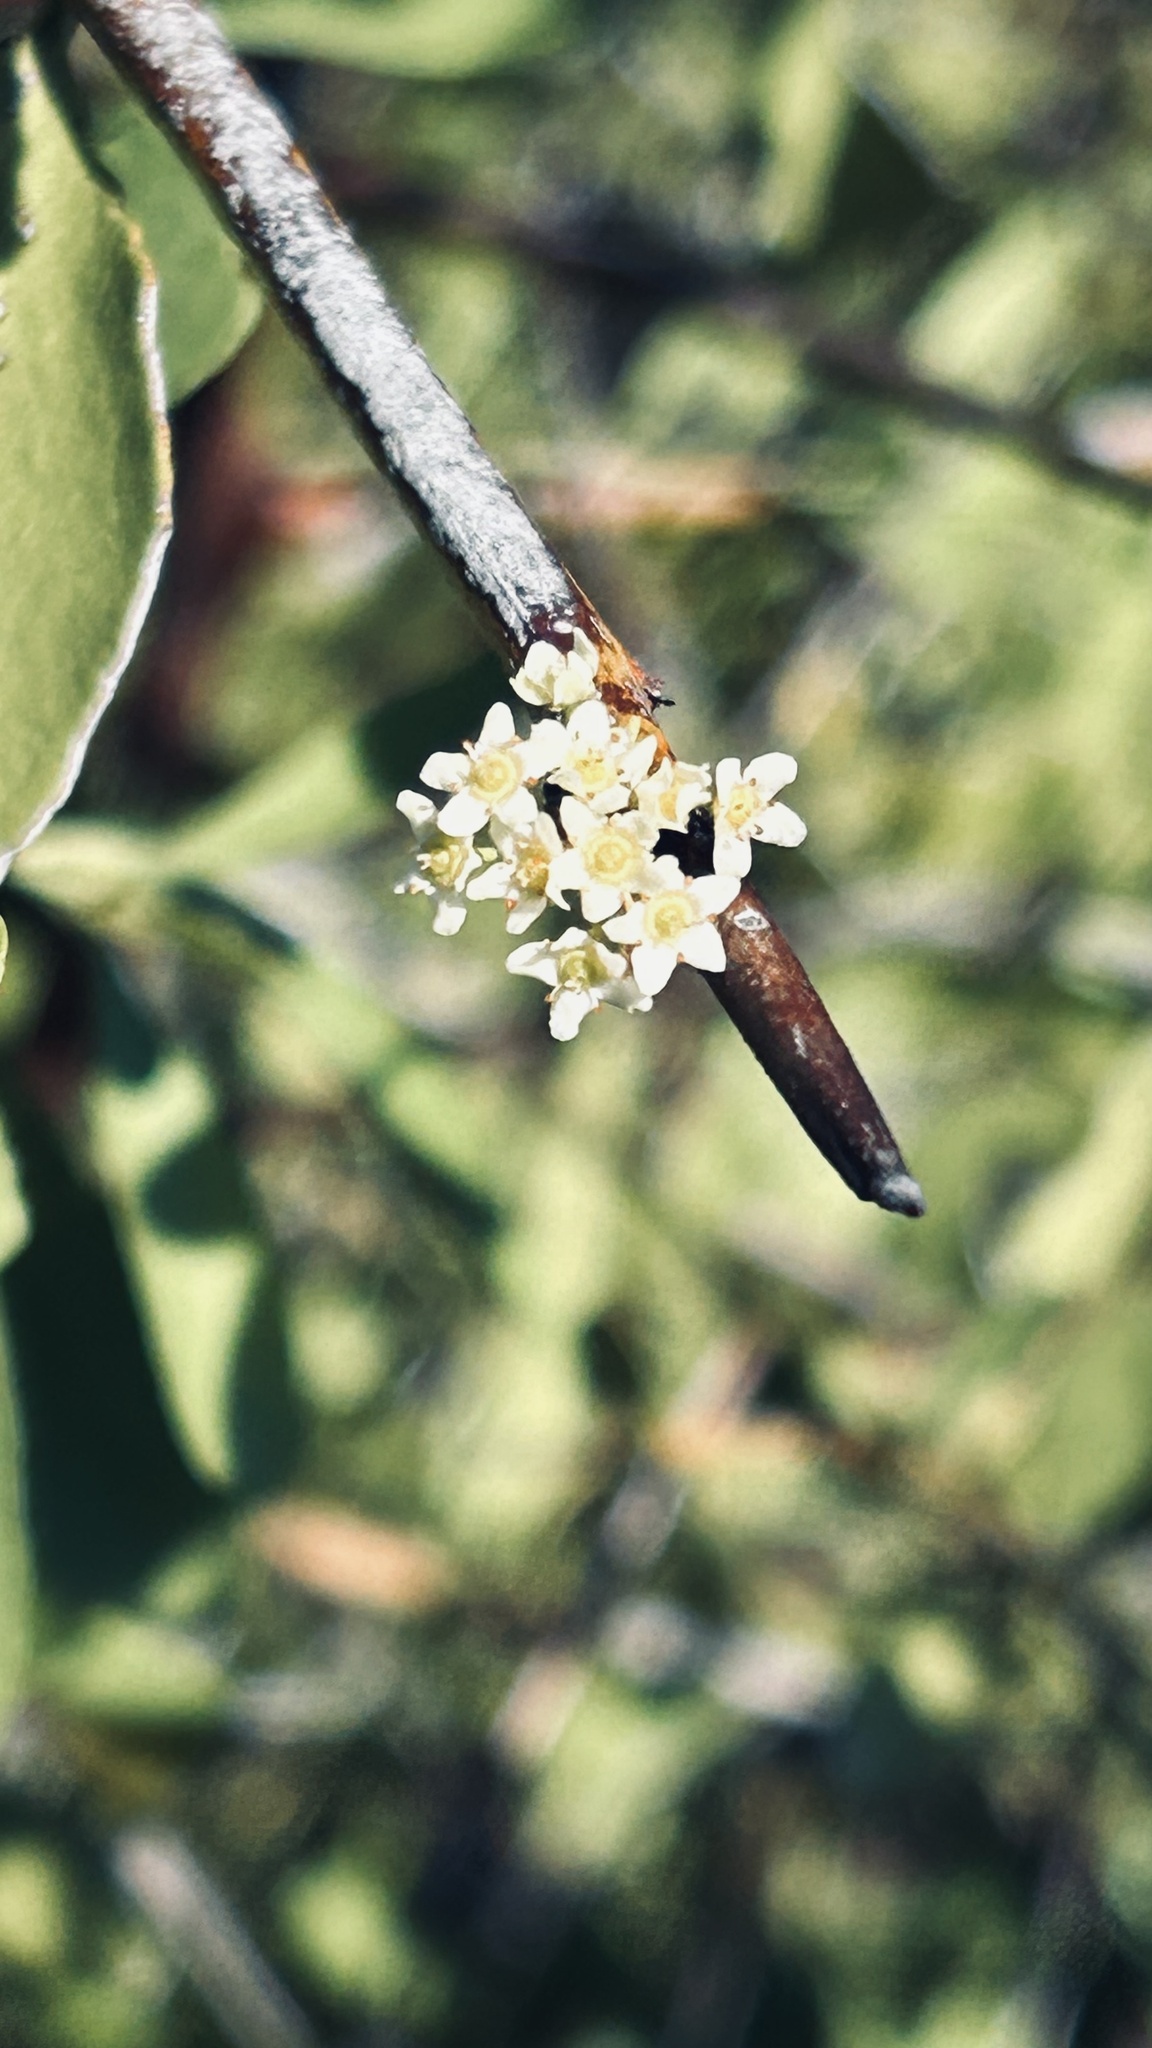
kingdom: Plantae
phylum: Tracheophyta
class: Magnoliopsida
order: Celastrales
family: Celastraceae
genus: Gymnosporia
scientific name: Gymnosporia buxifolia
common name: Common spike-thorn
